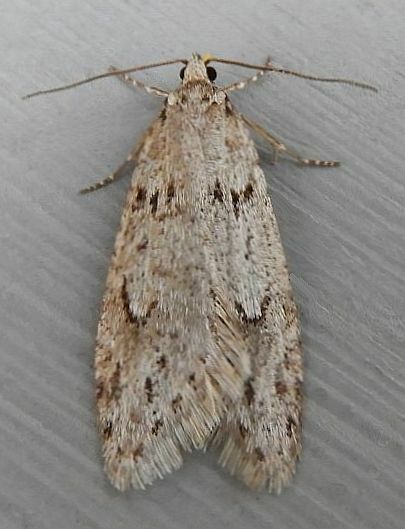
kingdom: Animalia
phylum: Arthropoda
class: Insecta
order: Lepidoptera
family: Depressariidae
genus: Semioscopis
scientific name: Semioscopis megamicrella
